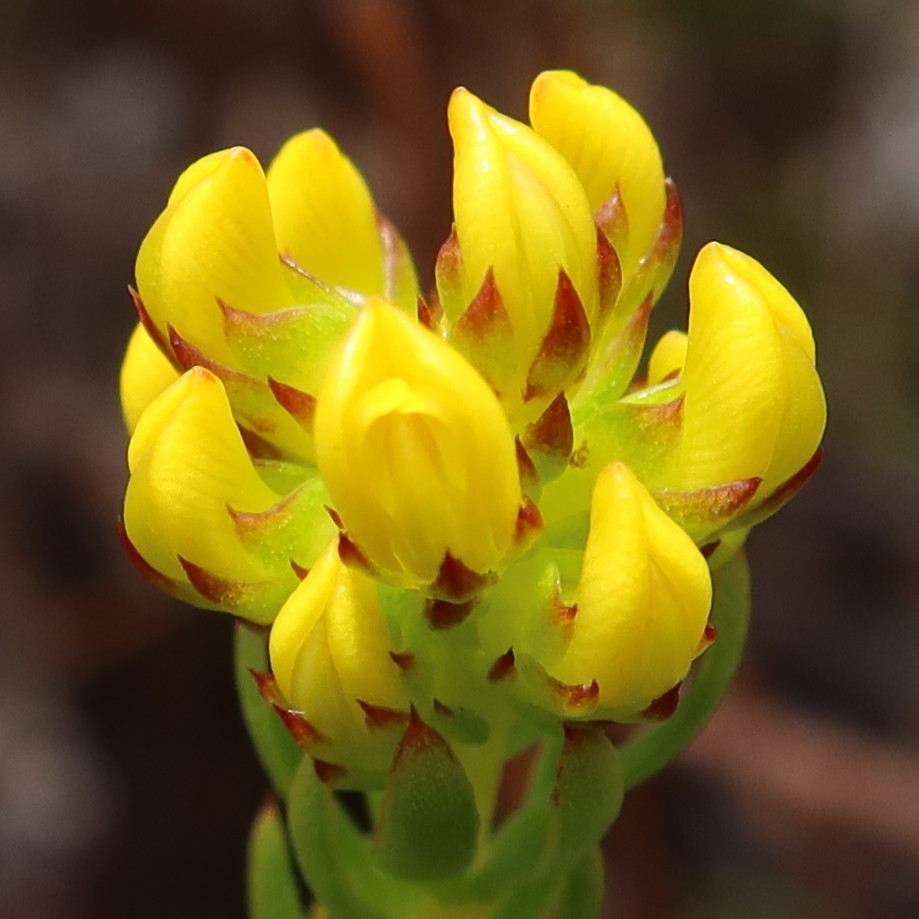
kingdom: Plantae
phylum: Tracheophyta
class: Magnoliopsida
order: Fabales
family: Fabaceae
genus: Aspalathus
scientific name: Aspalathus callosa
